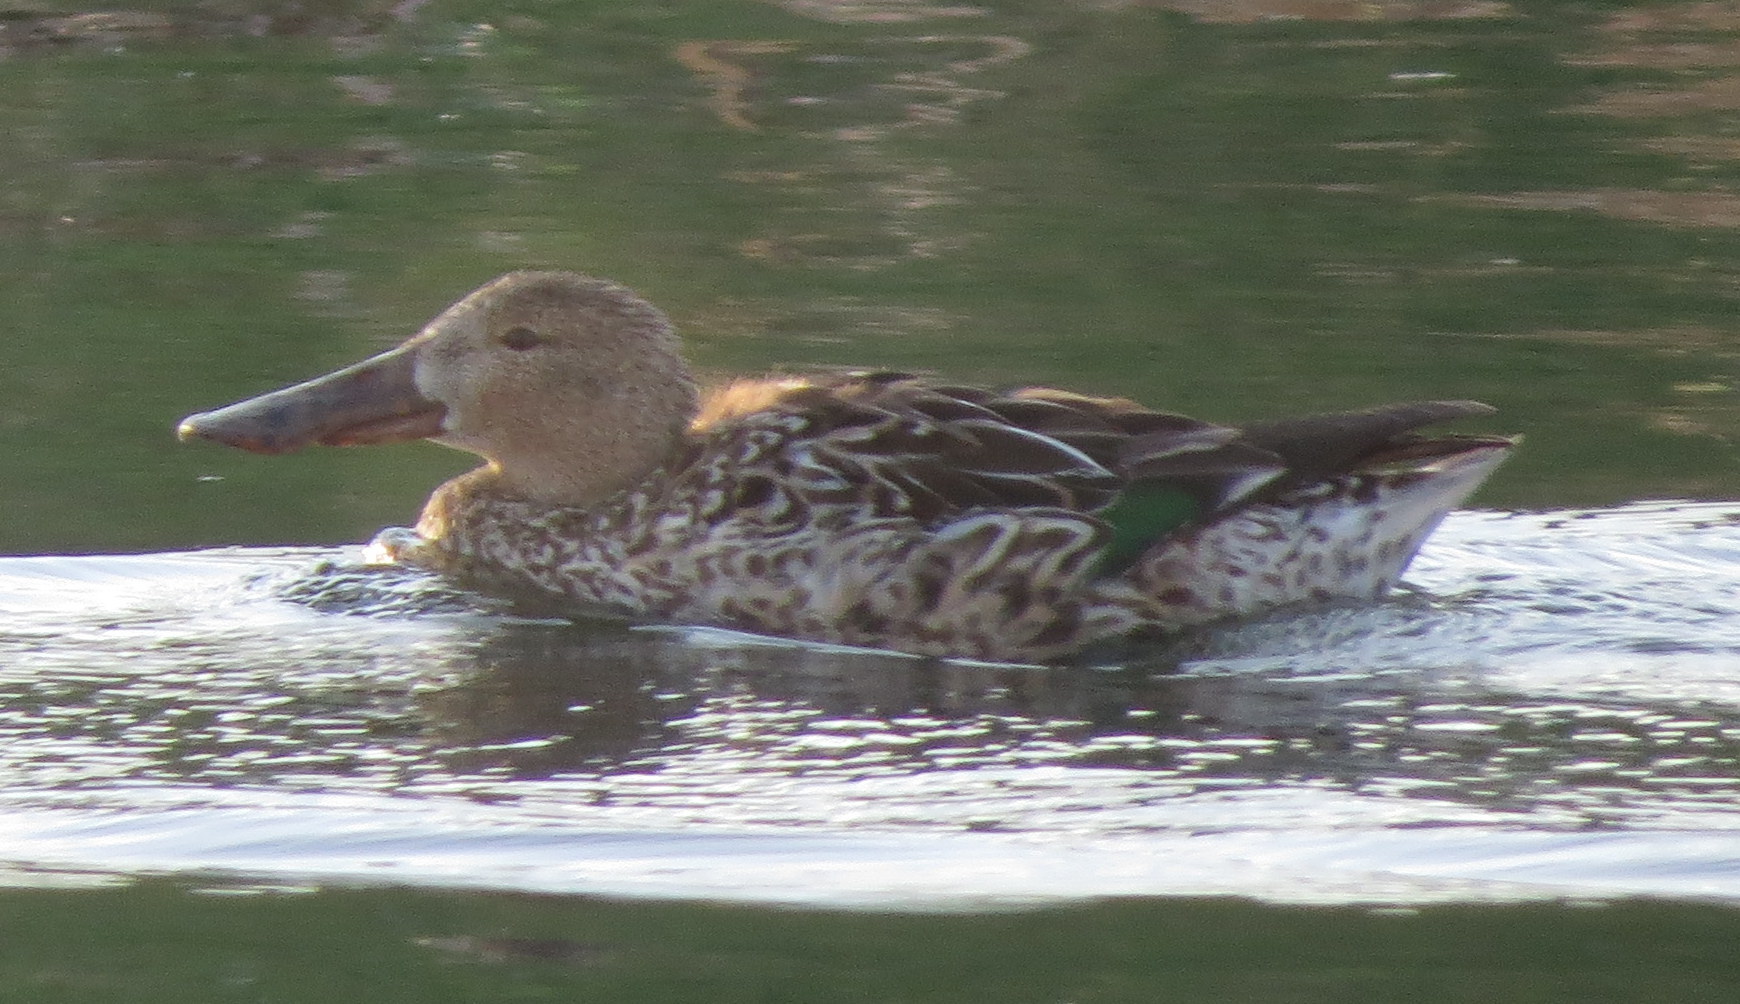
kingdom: Animalia
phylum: Chordata
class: Aves
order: Anseriformes
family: Anatidae
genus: Spatula
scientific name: Spatula clypeata
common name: Northern shoveler
